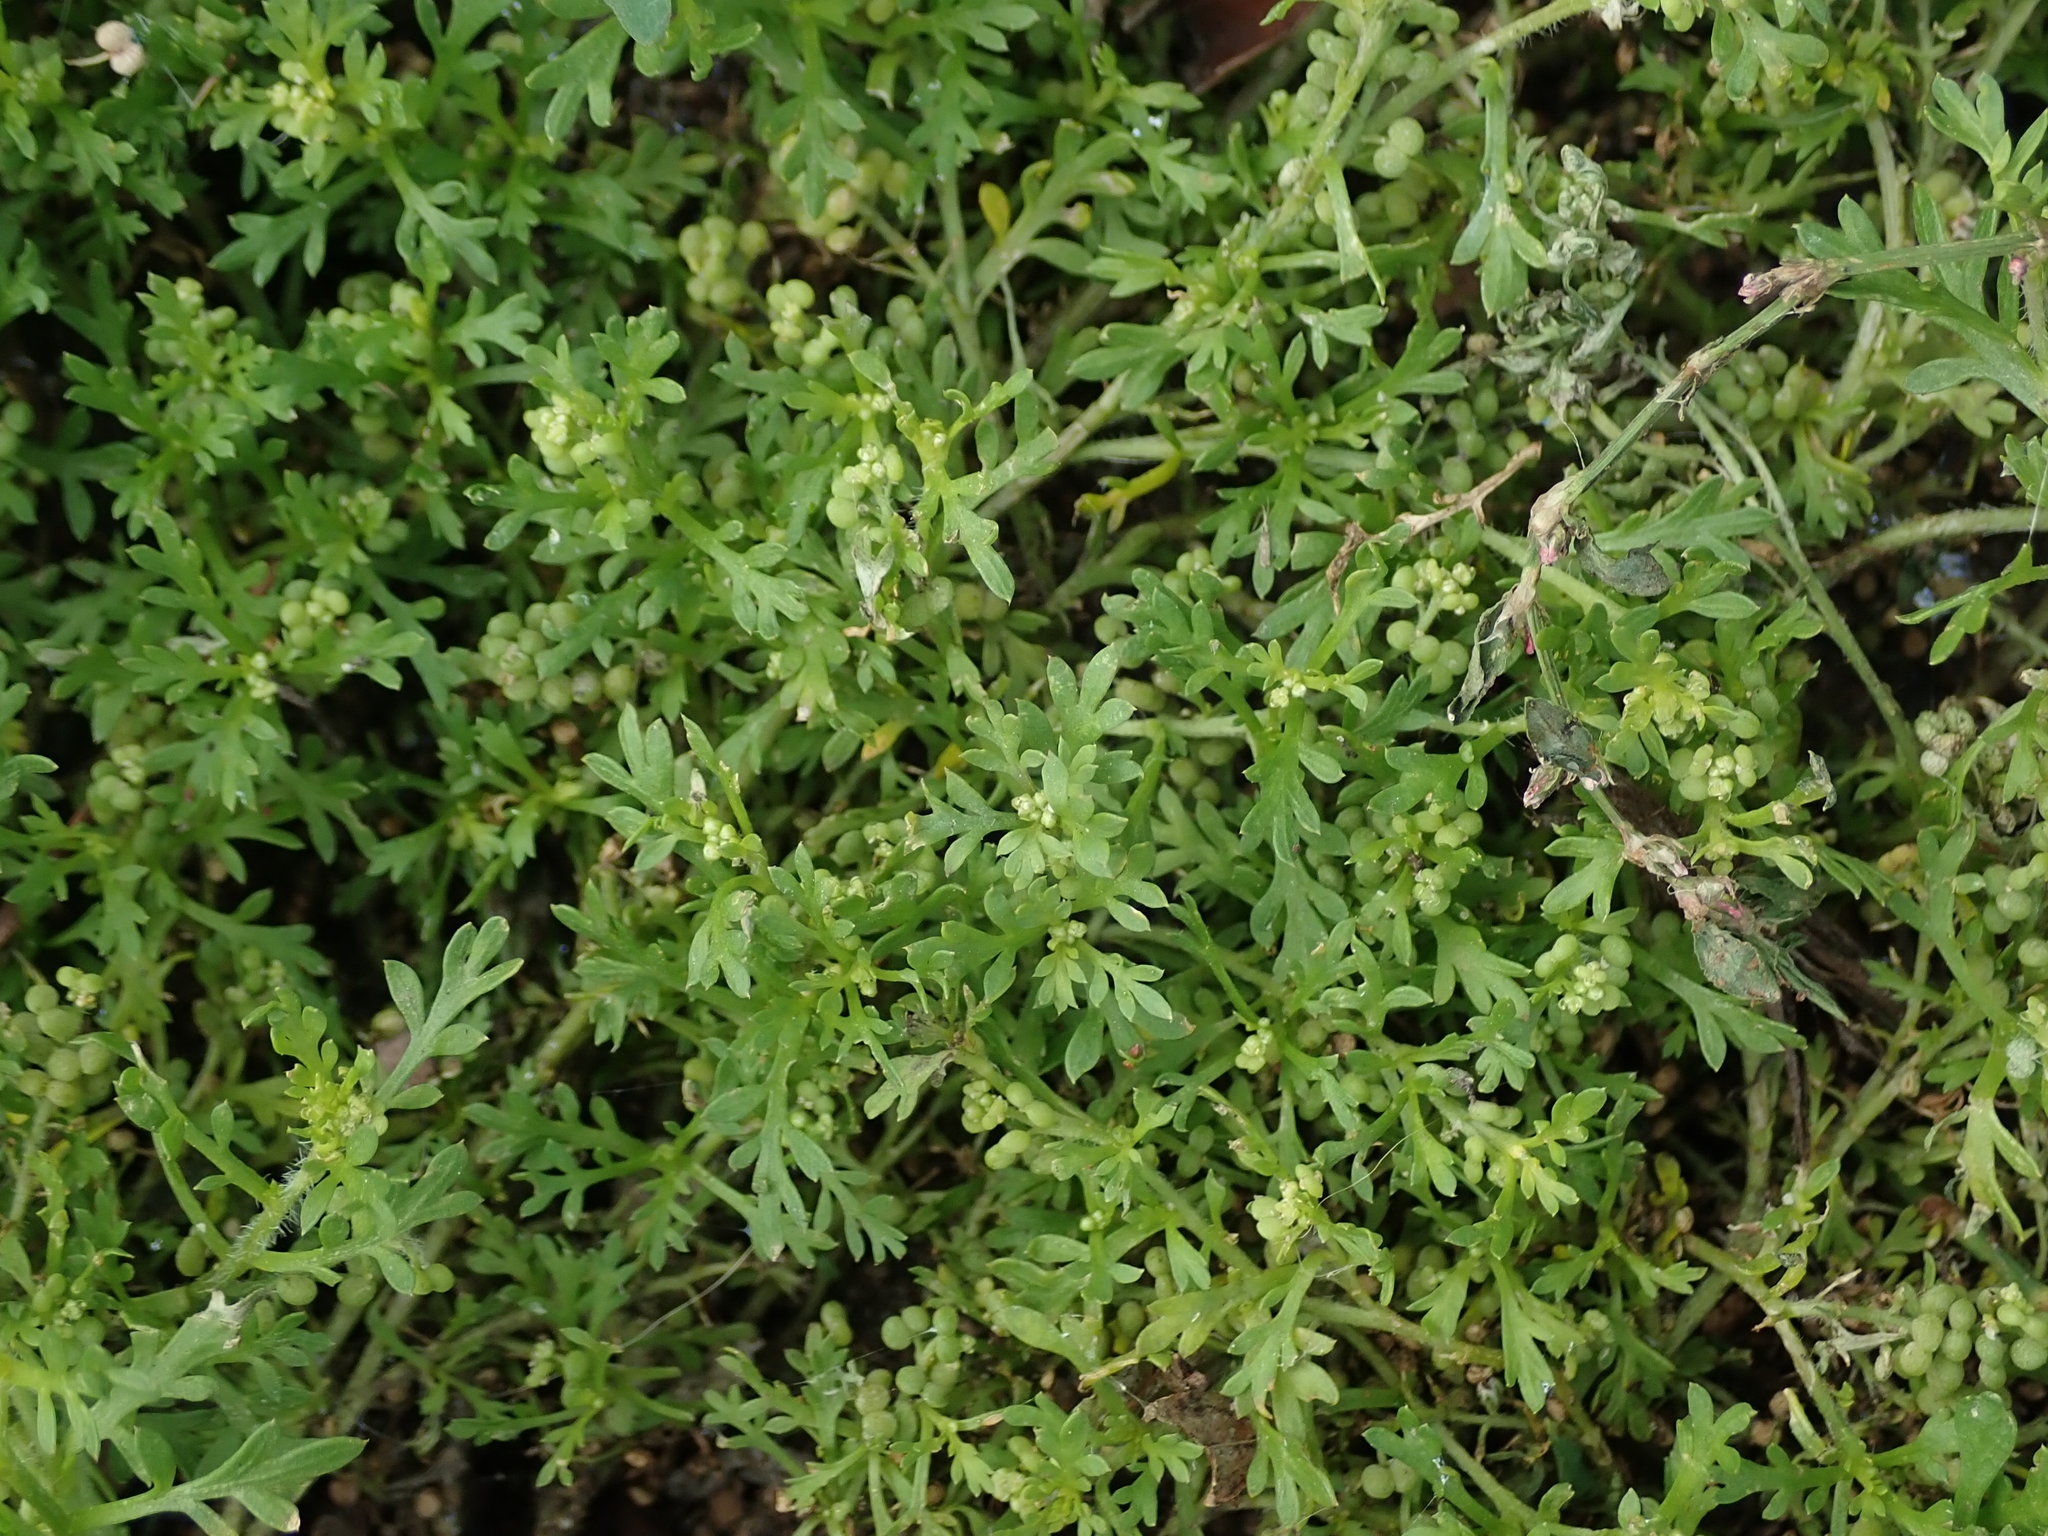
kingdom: Plantae
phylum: Tracheophyta
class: Magnoliopsida
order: Brassicales
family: Brassicaceae
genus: Lepidium
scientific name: Lepidium didymum
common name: Lesser swinecress
